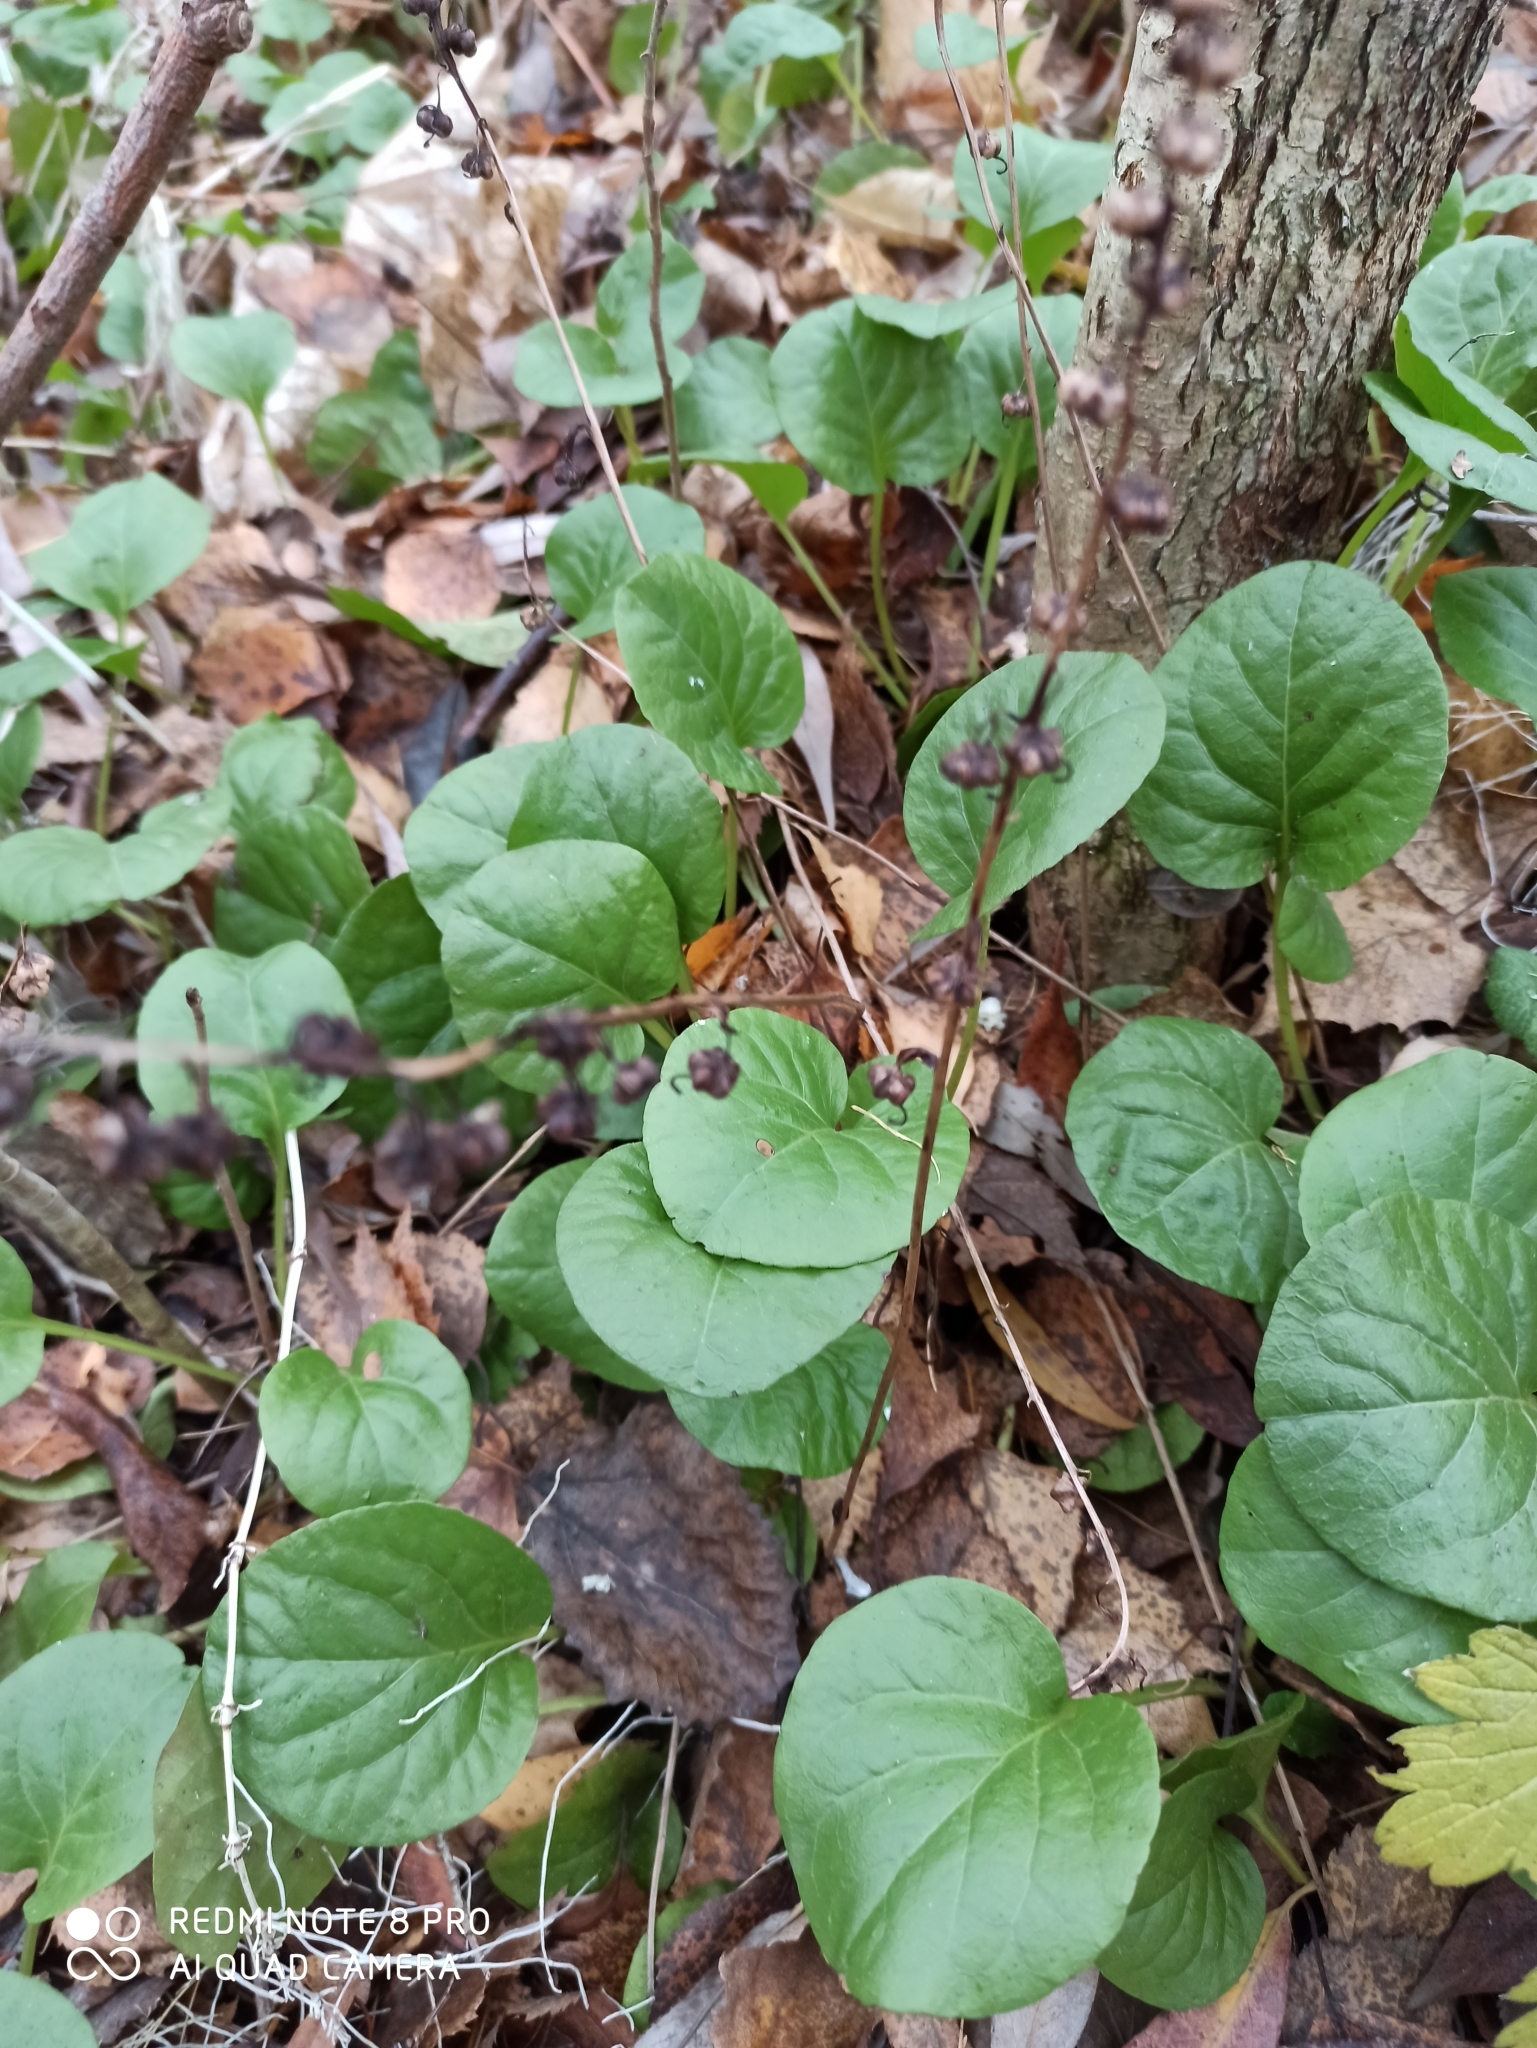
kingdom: Plantae
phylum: Tracheophyta
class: Magnoliopsida
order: Ericales
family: Ericaceae
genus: Pyrola
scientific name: Pyrola rotundifolia
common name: Round-leaved wintergreen
